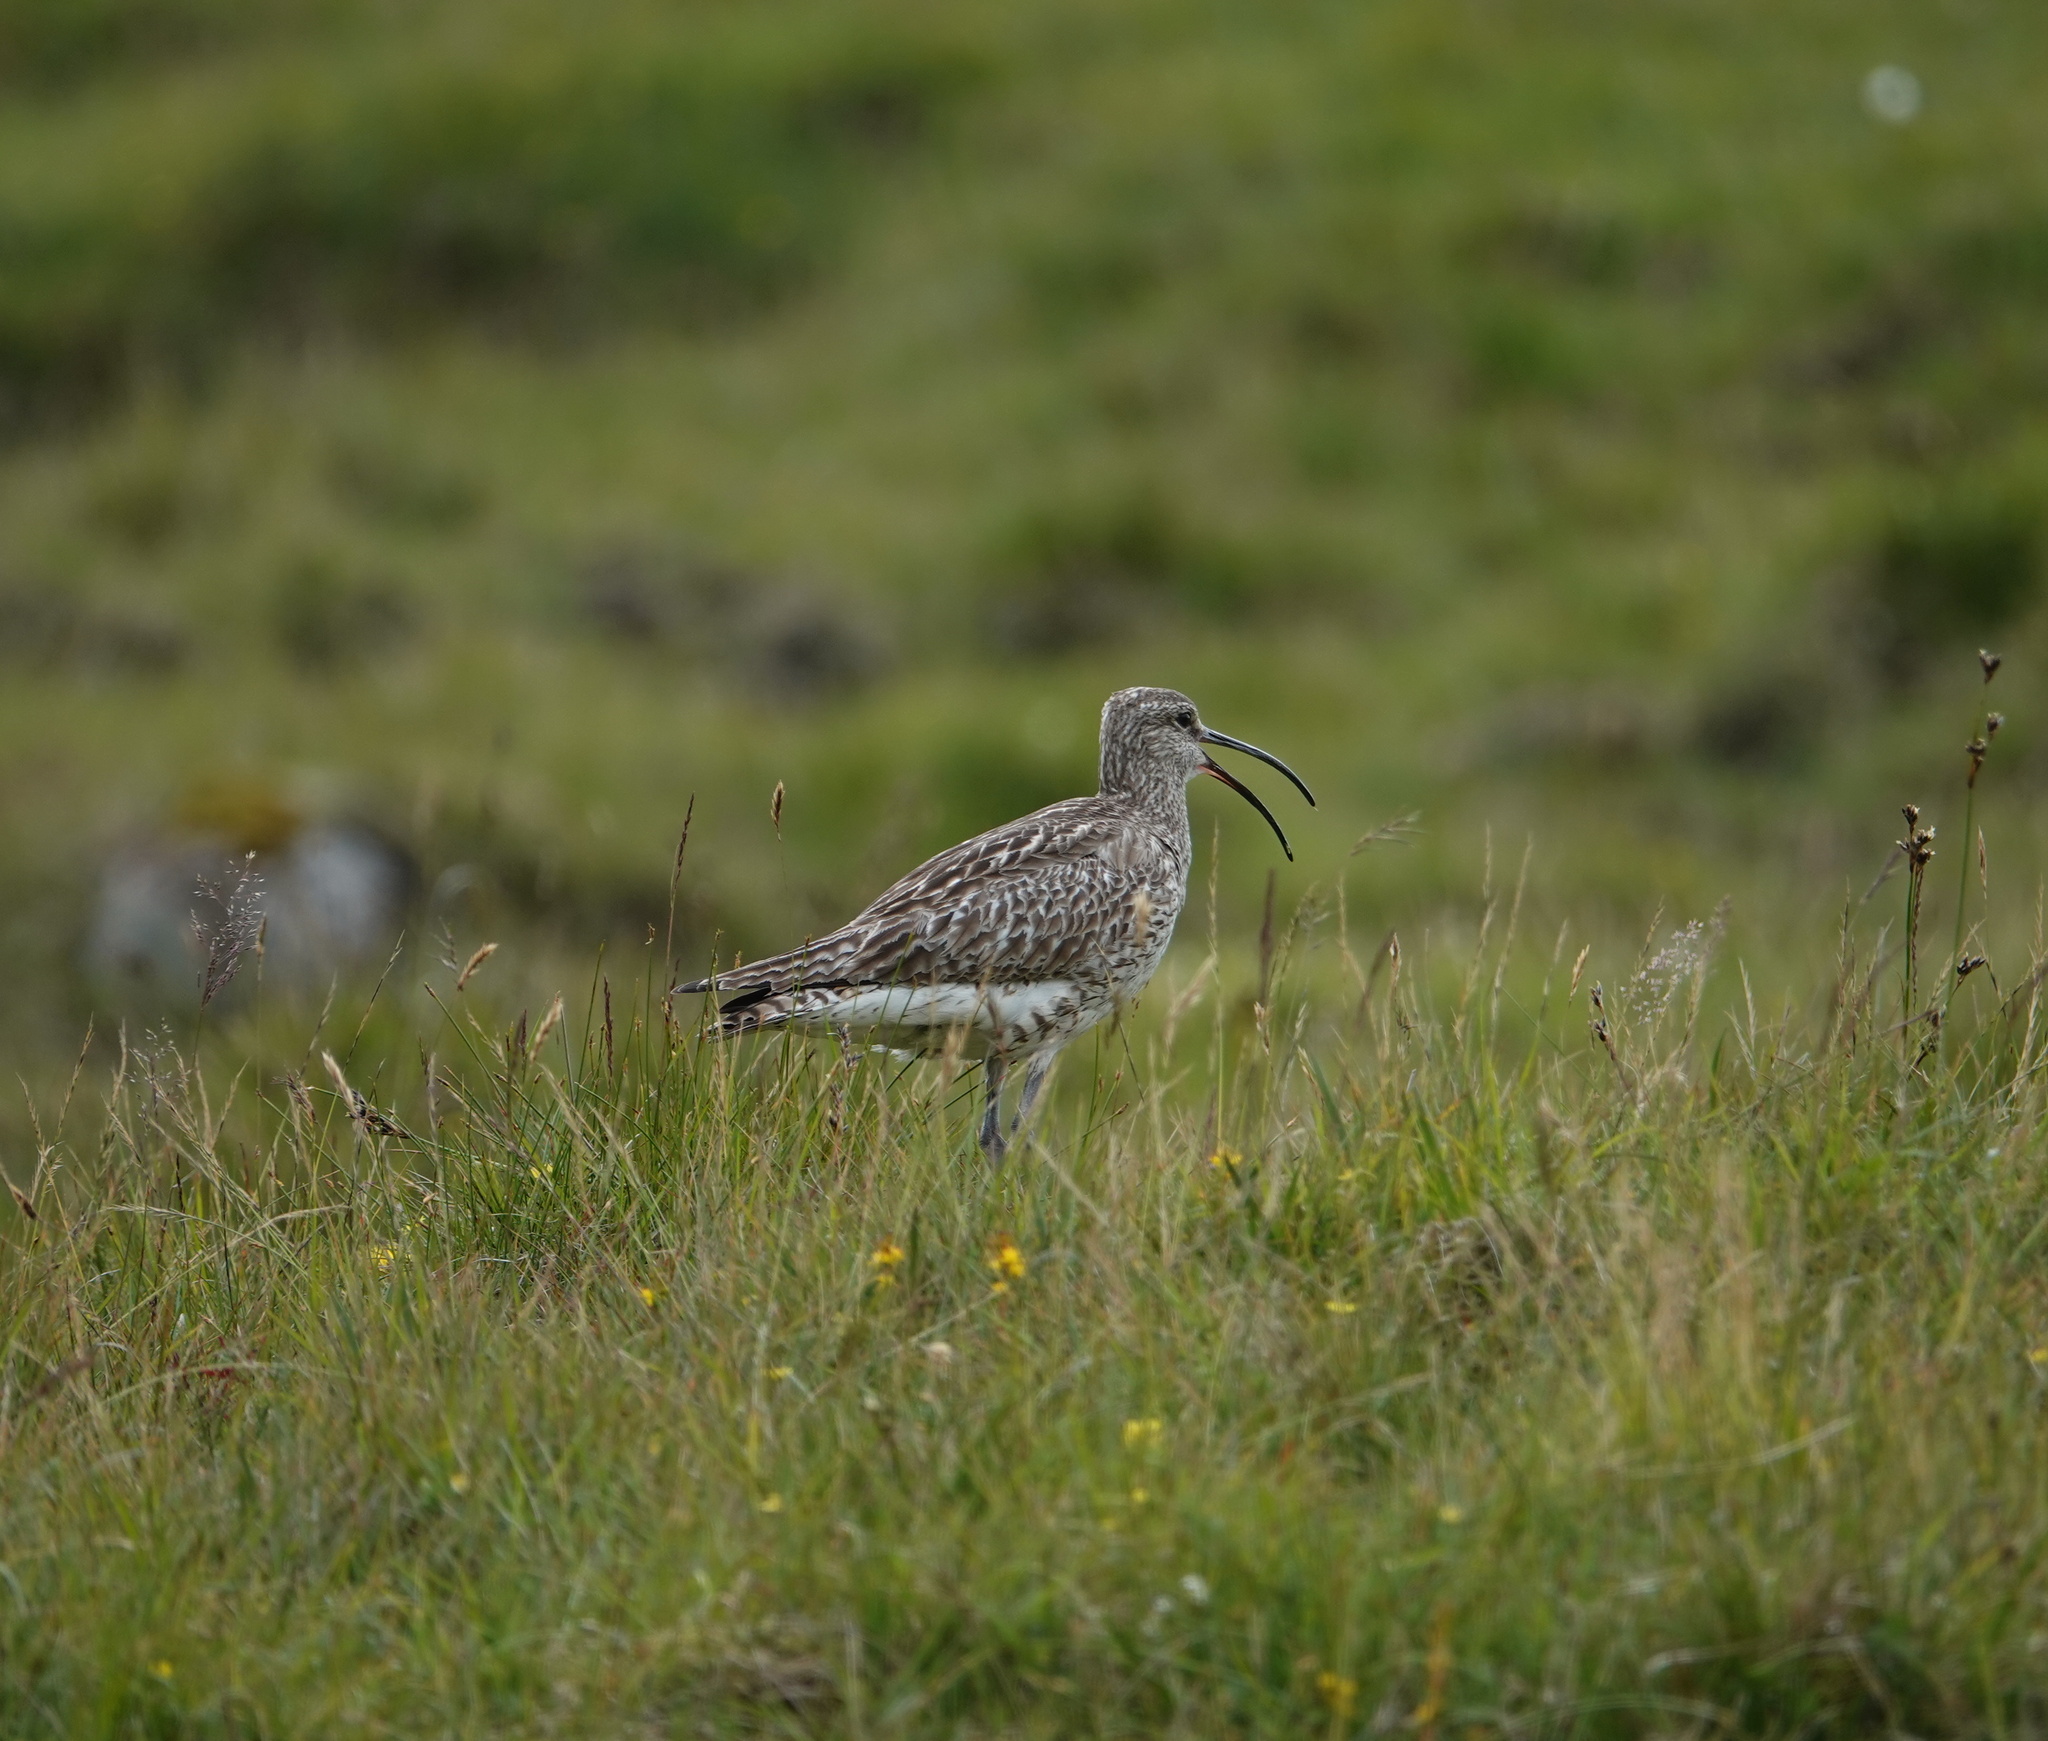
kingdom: Animalia
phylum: Chordata
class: Aves
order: Charadriiformes
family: Scolopacidae
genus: Numenius
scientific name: Numenius phaeopus
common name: Whimbrel
